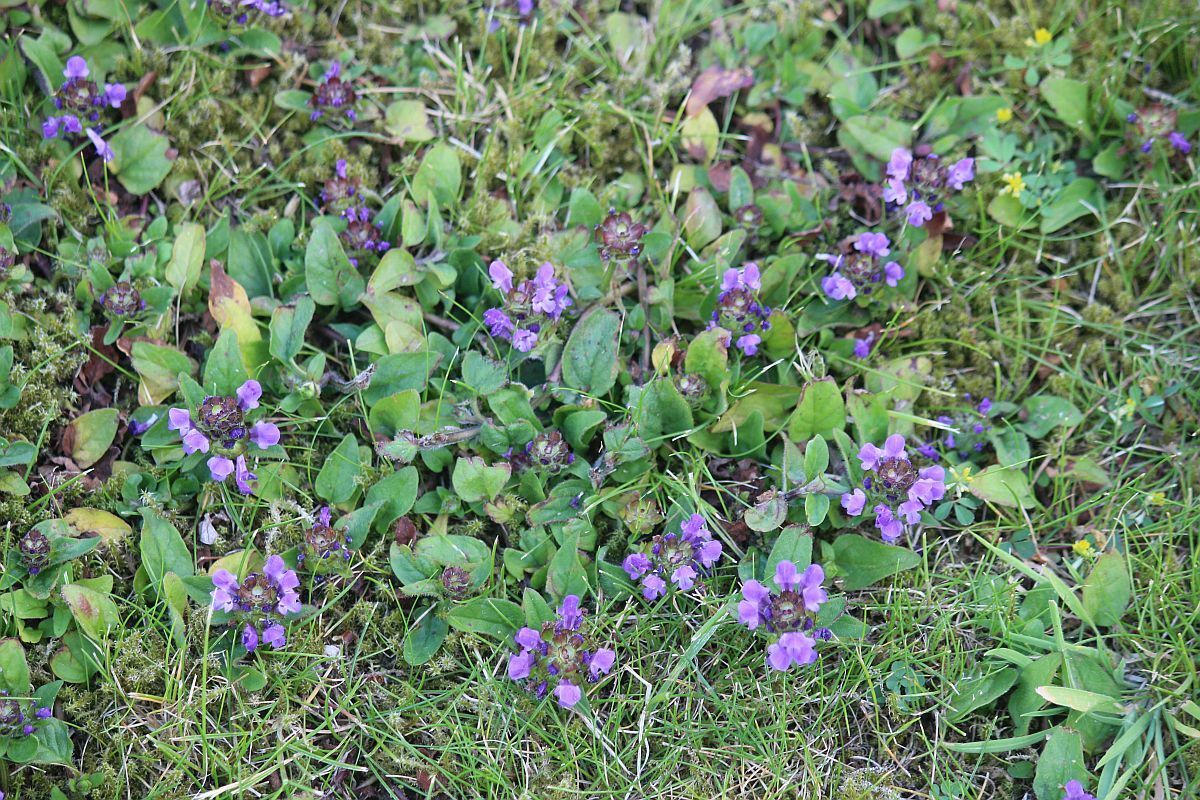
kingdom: Plantae
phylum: Tracheophyta
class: Magnoliopsida
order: Lamiales
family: Lamiaceae
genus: Prunella
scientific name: Prunella vulgaris
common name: Heal-all
